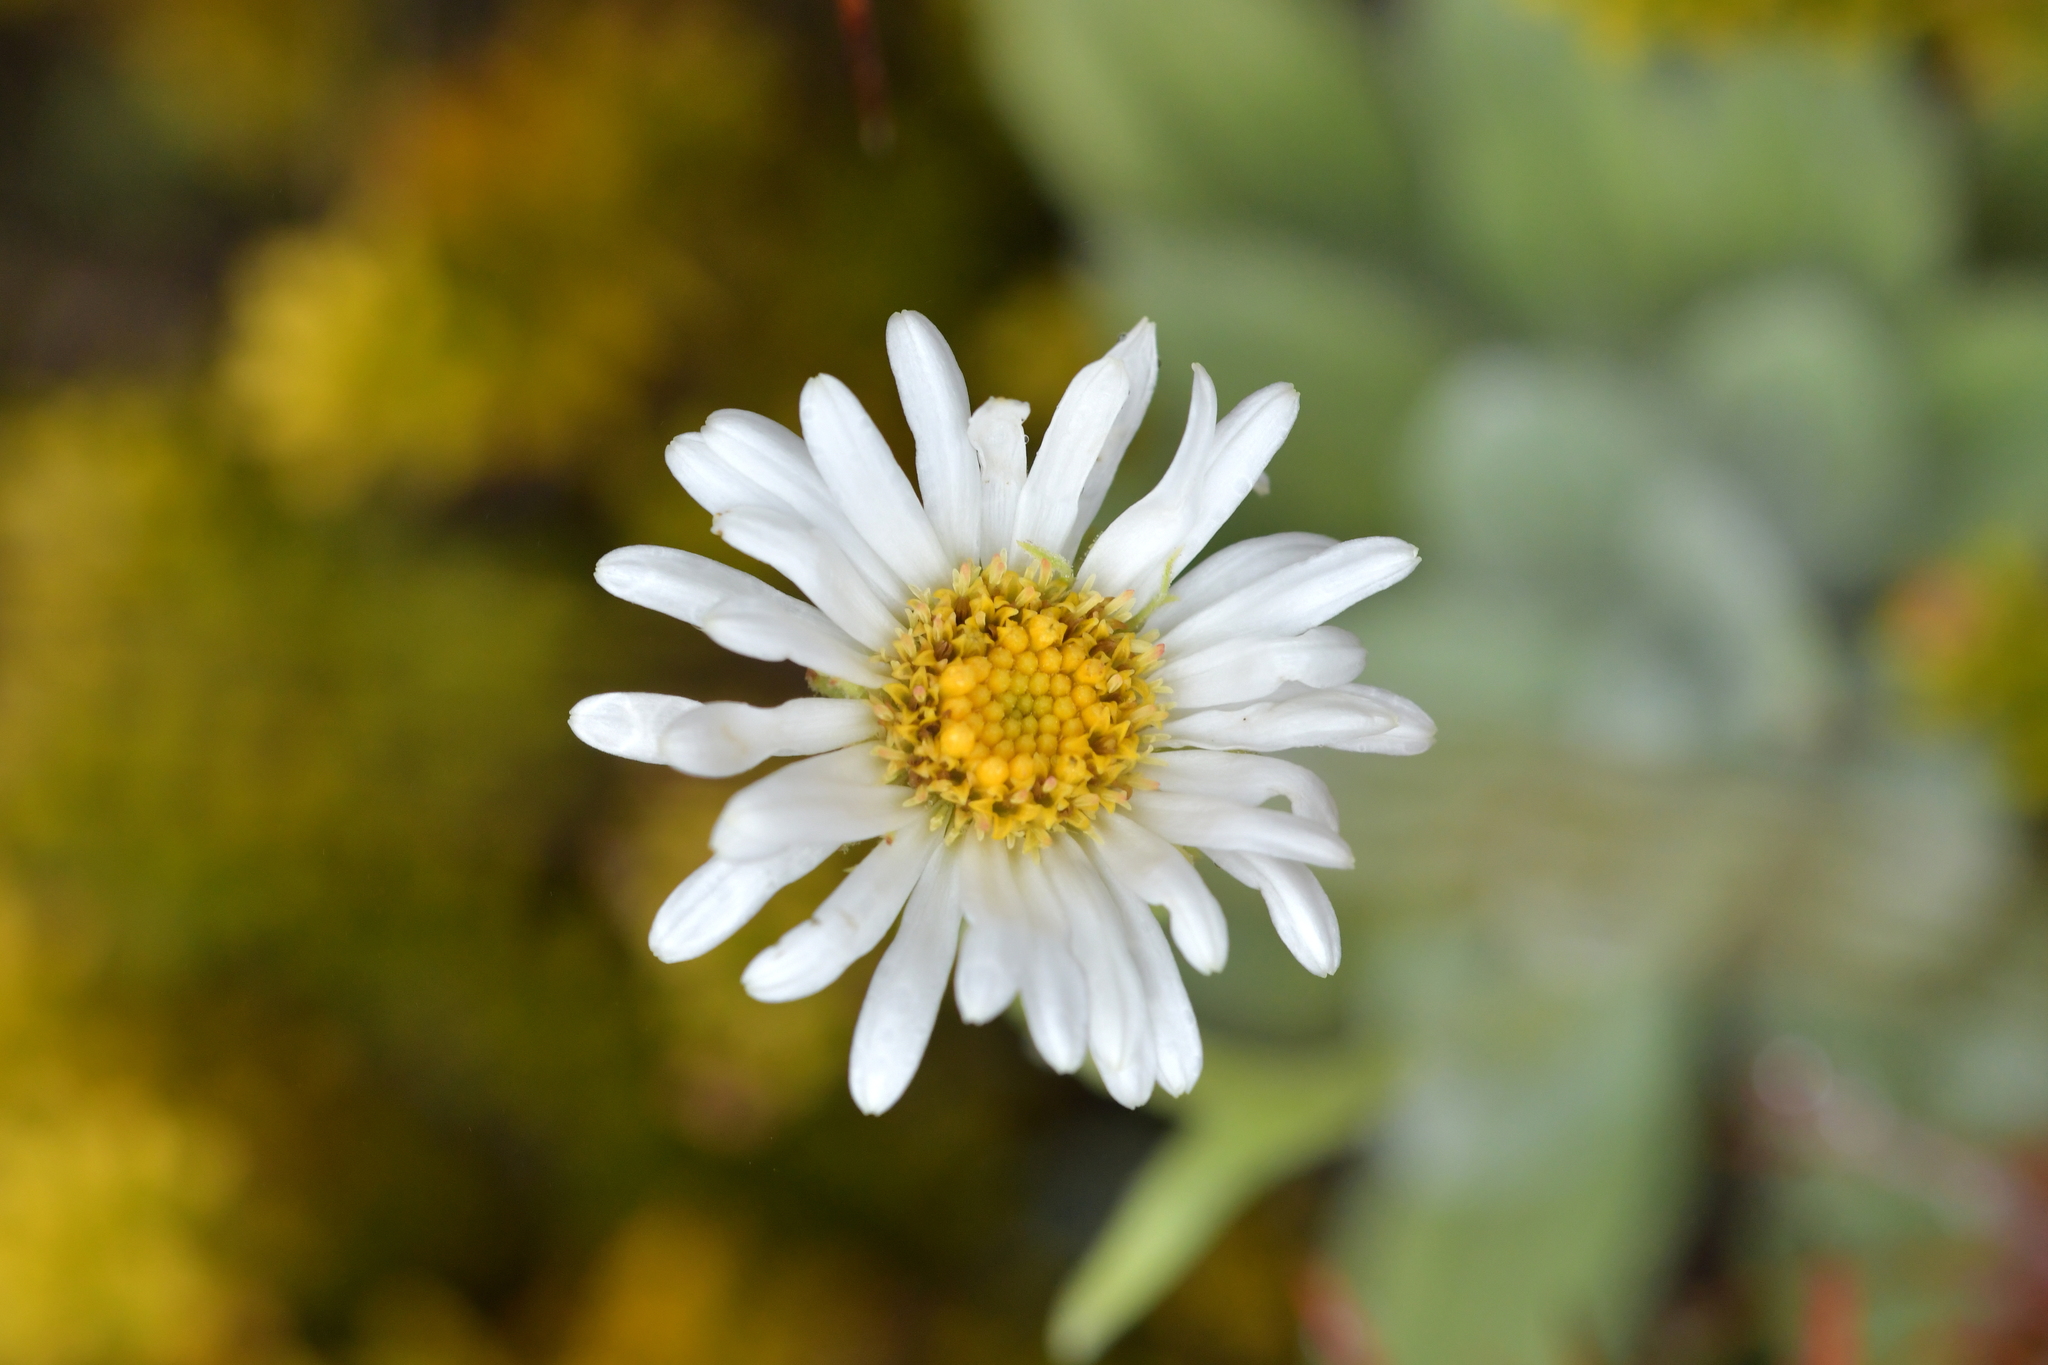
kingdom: Plantae
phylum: Tracheophyta
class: Magnoliopsida
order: Asterales
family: Asteraceae
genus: Celmisia
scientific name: Celmisia incana
